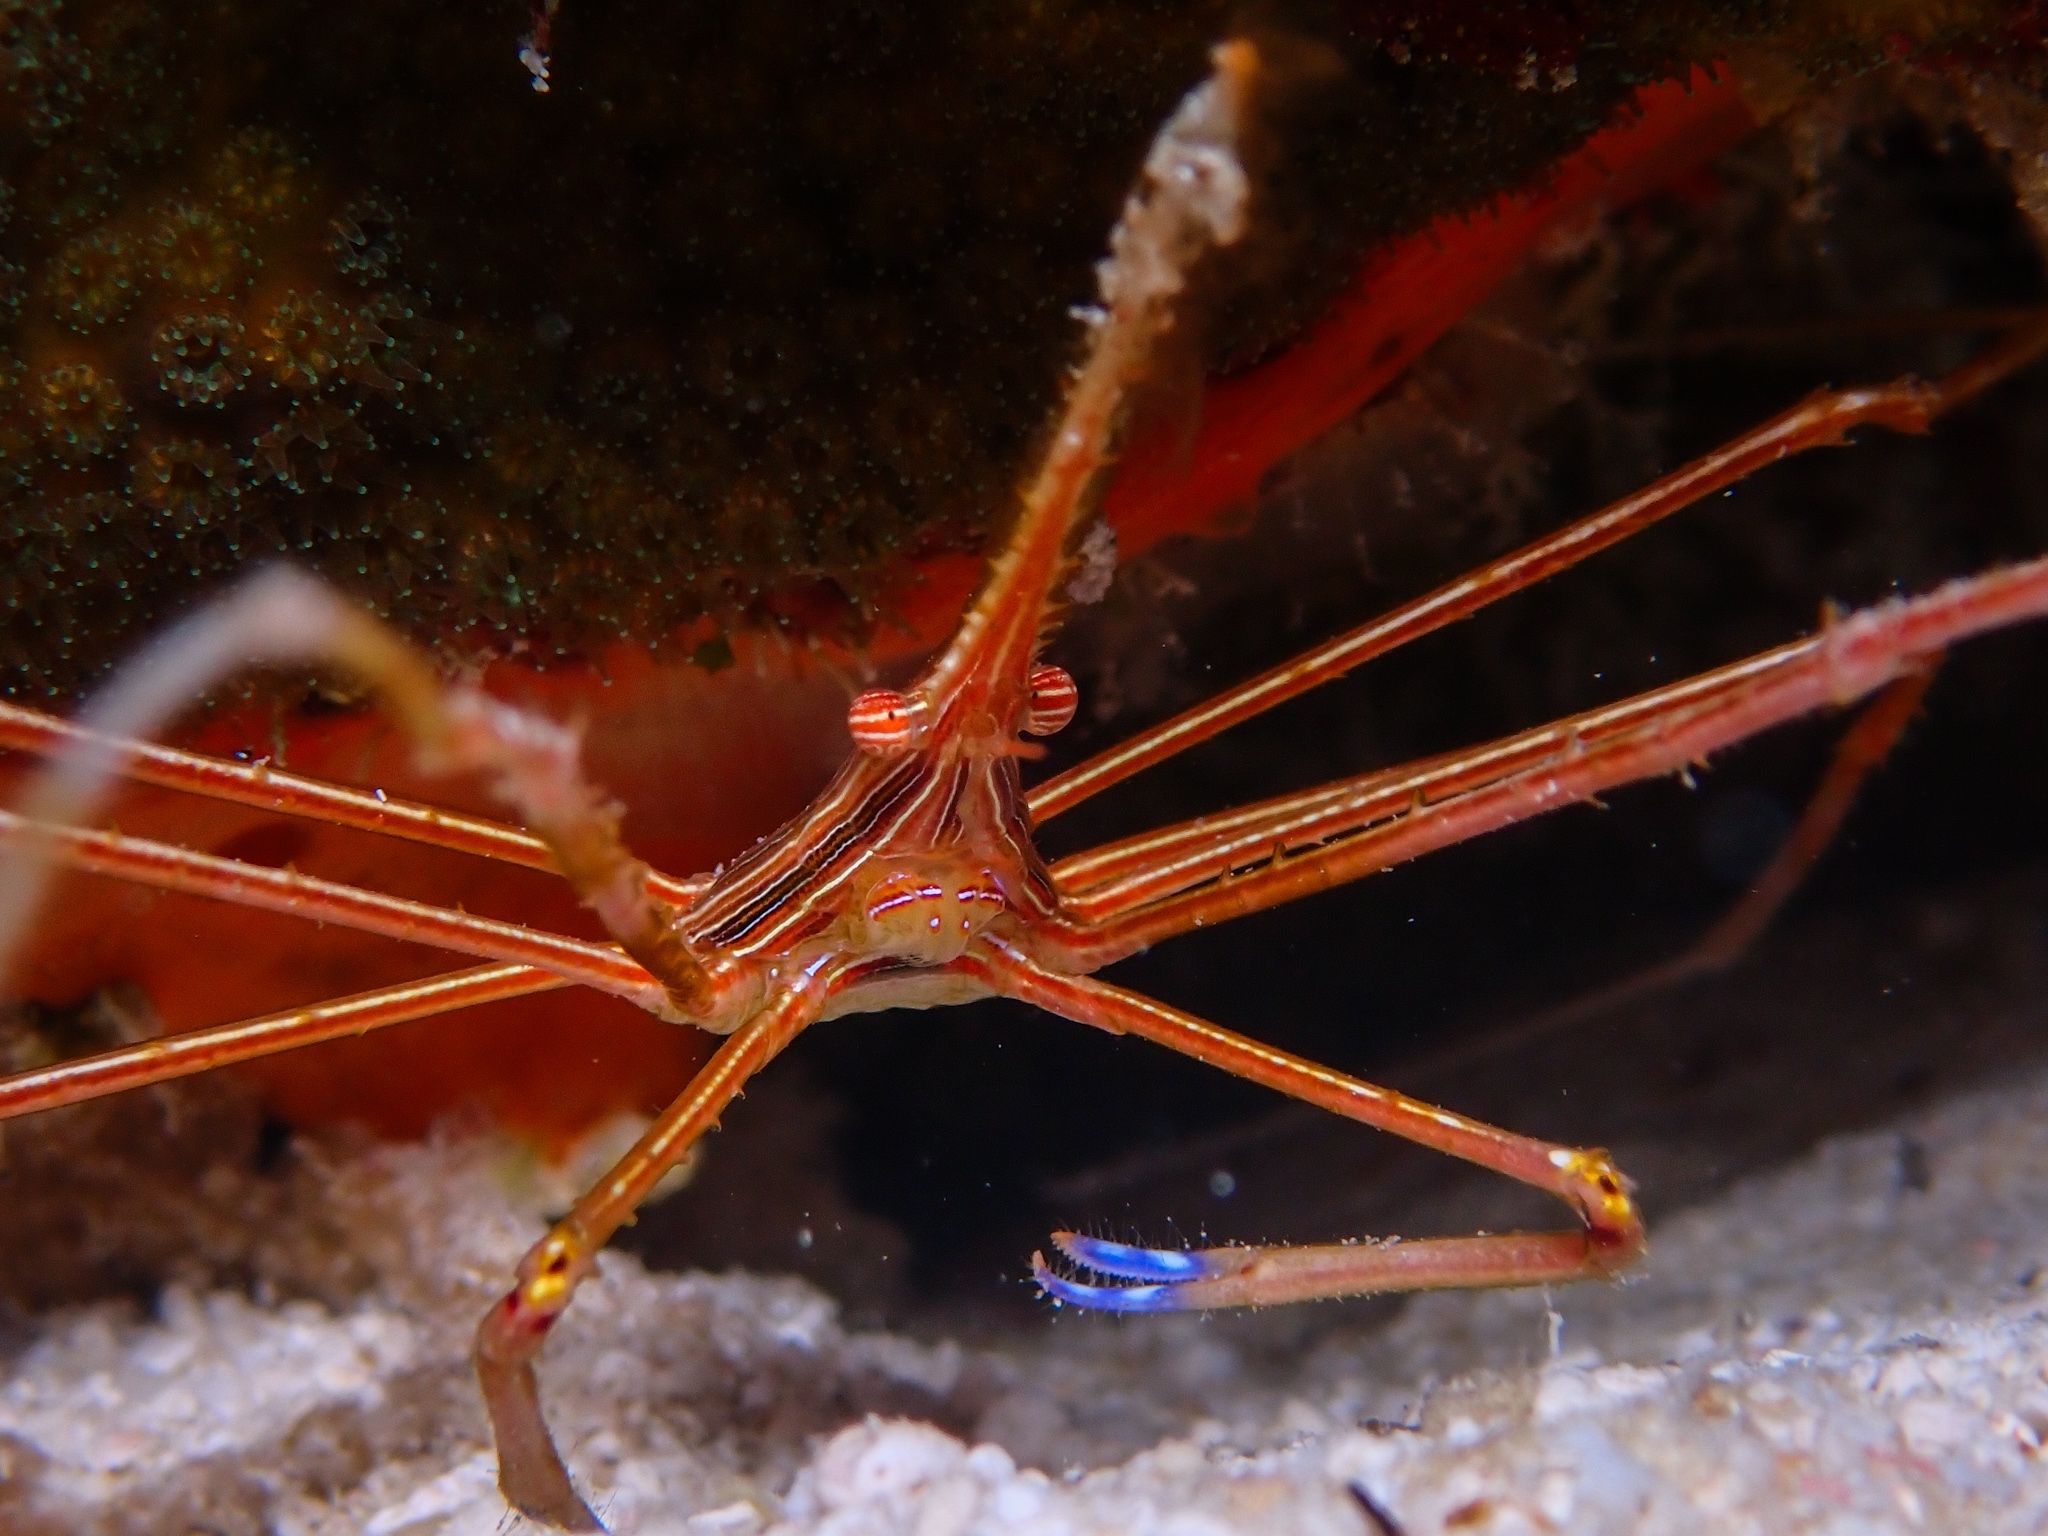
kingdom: Animalia
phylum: Arthropoda
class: Malacostraca
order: Decapoda
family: Inachoididae
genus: Stenorhynchus
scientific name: Stenorhynchus seticornis
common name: Arrow crab
